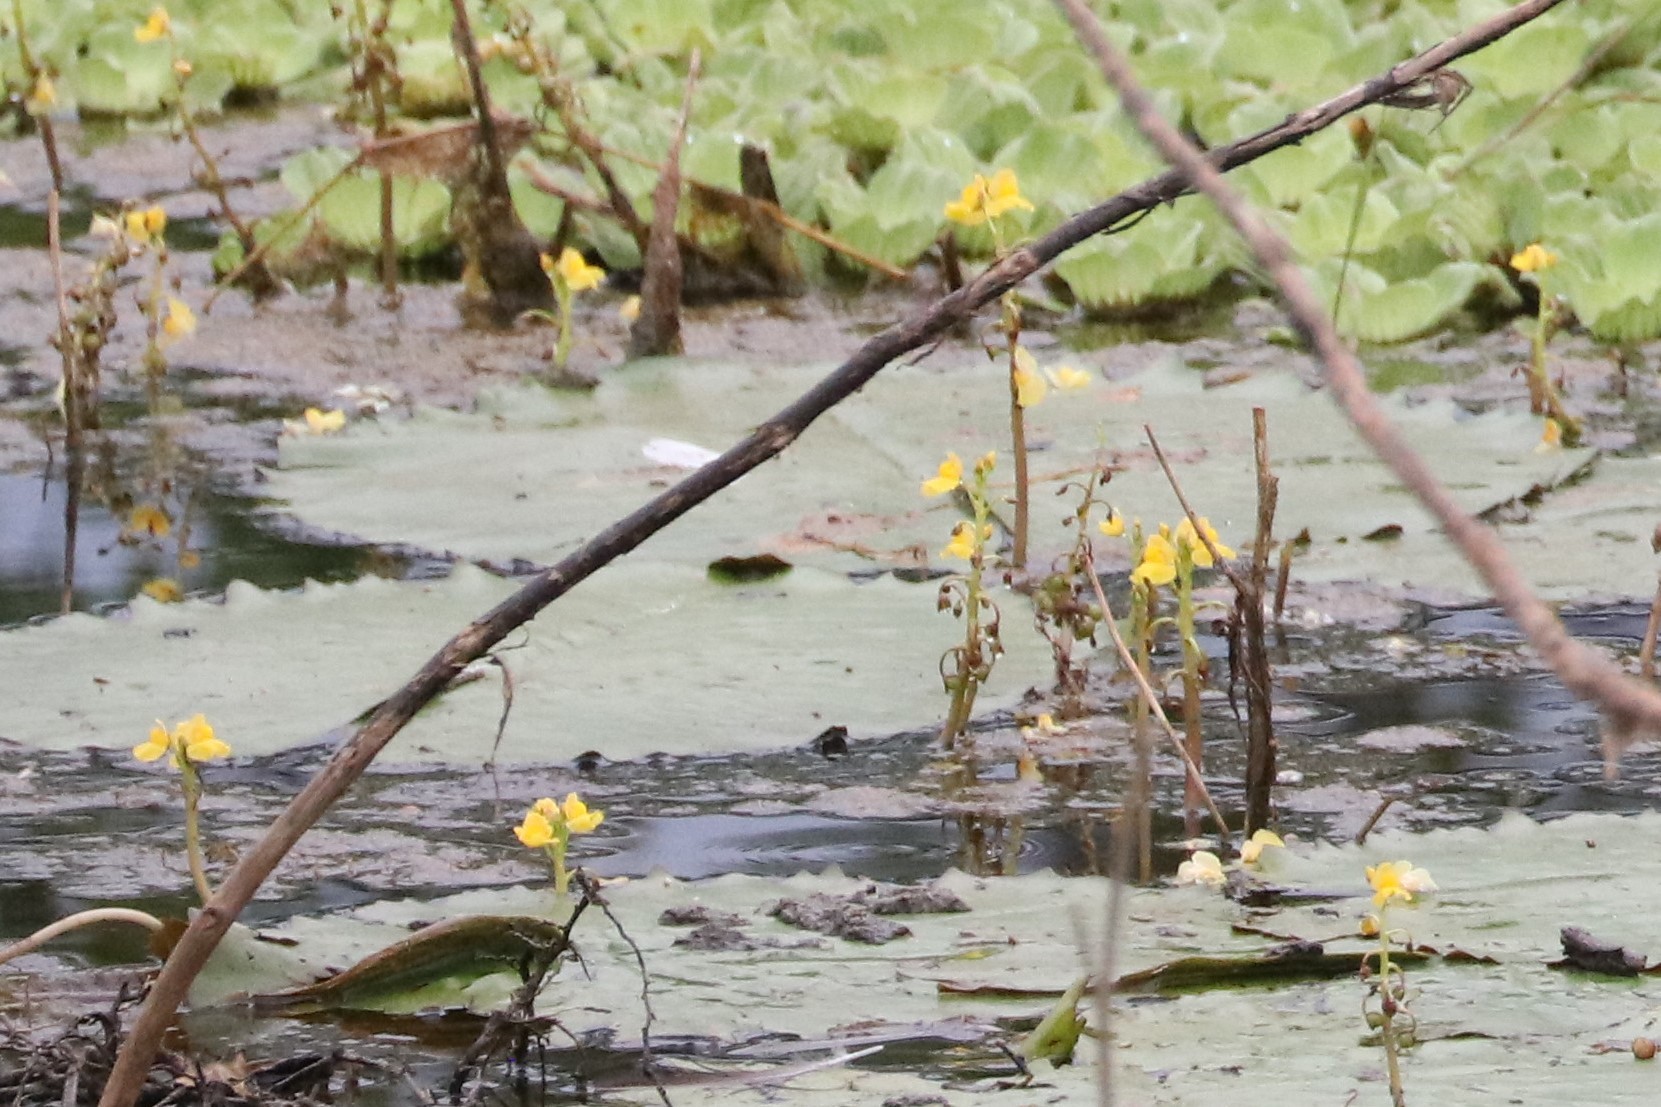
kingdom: Plantae
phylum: Tracheophyta
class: Magnoliopsida
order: Lamiales
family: Lentibulariaceae
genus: Utricularia
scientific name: Utricularia foliosa
